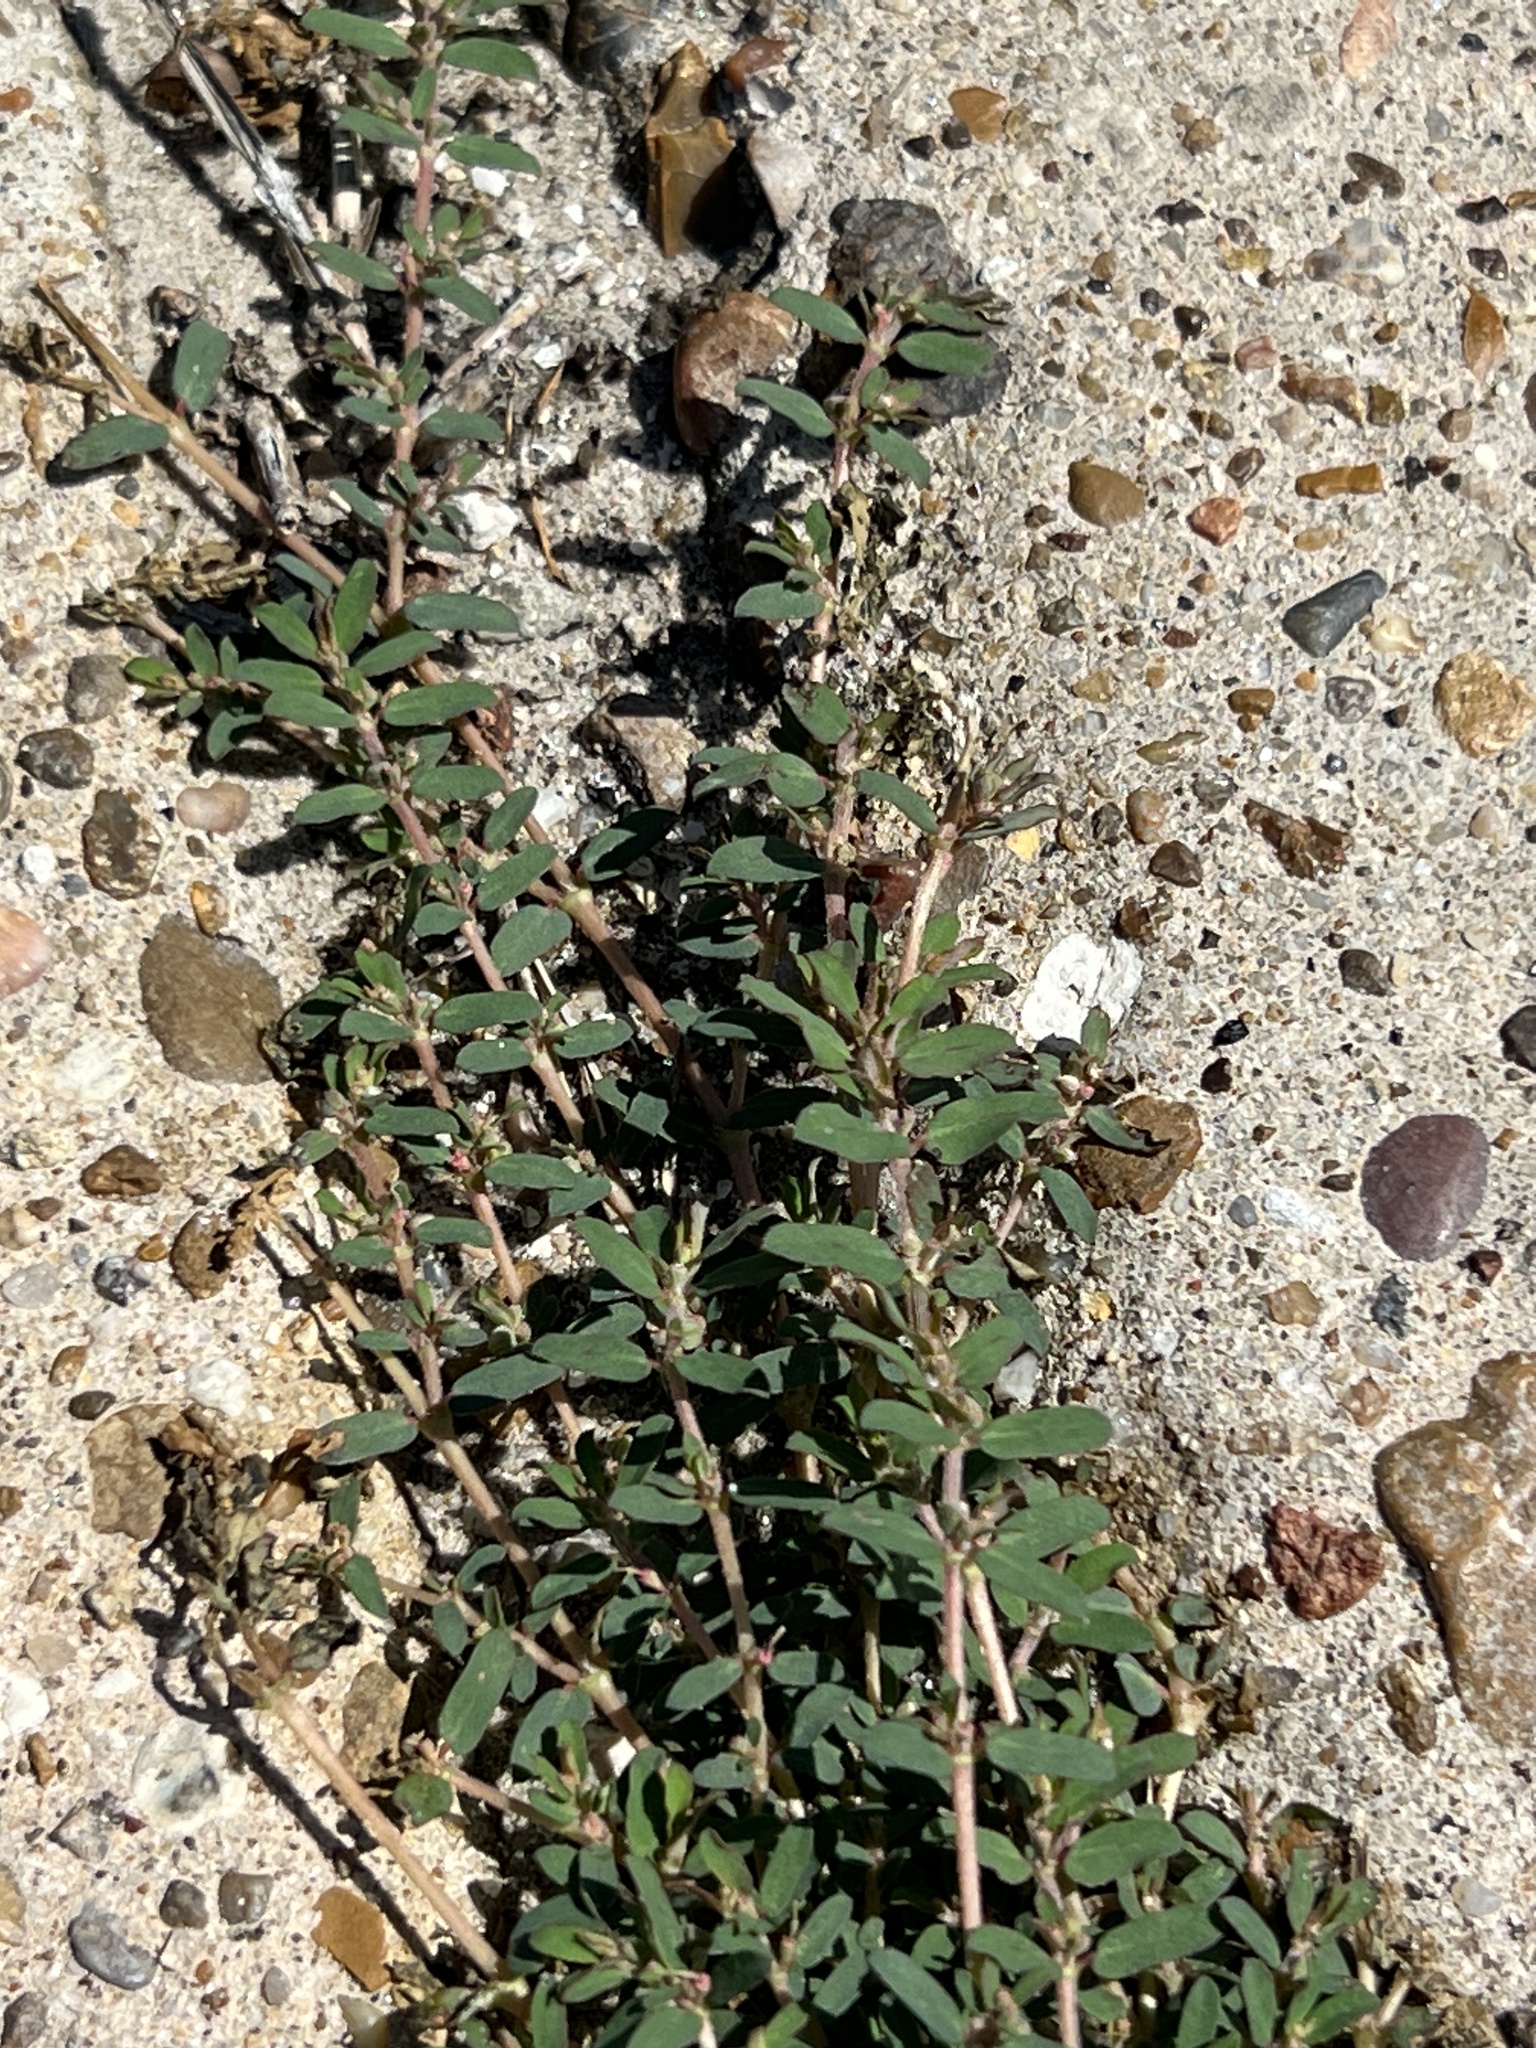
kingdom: Plantae
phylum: Tracheophyta
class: Magnoliopsida
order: Malpighiales
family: Euphorbiaceae
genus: Euphorbia
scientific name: Euphorbia maculata
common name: Spotted spurge
